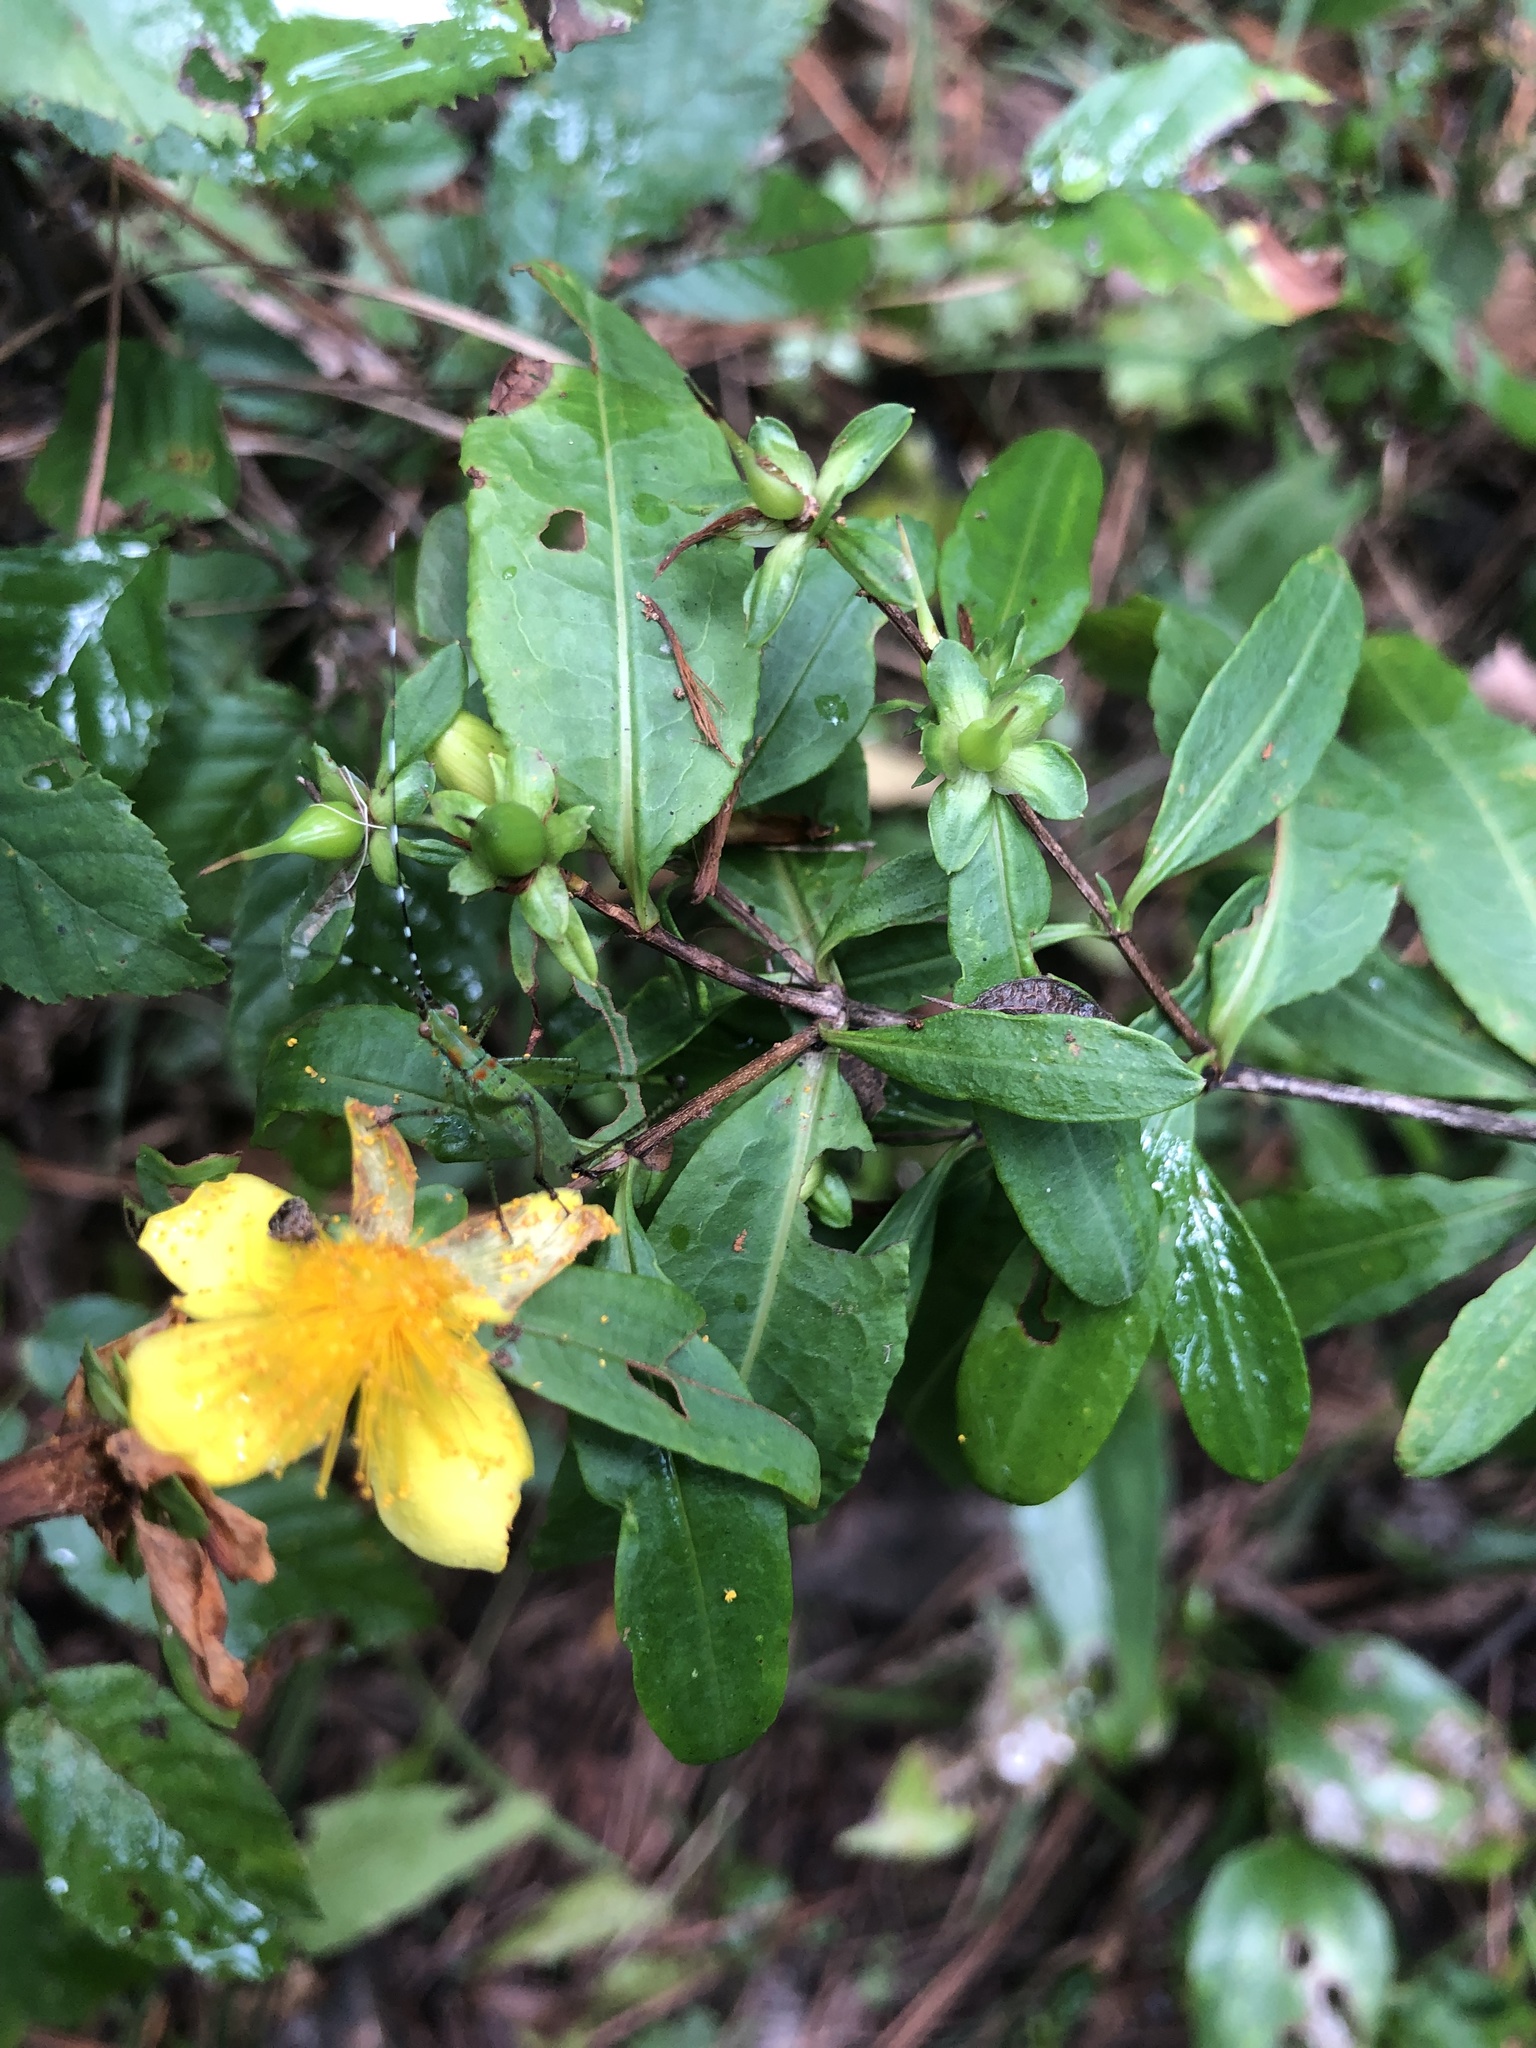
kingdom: Plantae
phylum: Tracheophyta
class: Magnoliopsida
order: Malpighiales
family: Hypericaceae
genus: Hypericum
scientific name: Hypericum frondosum
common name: Golden st. john's-wort
